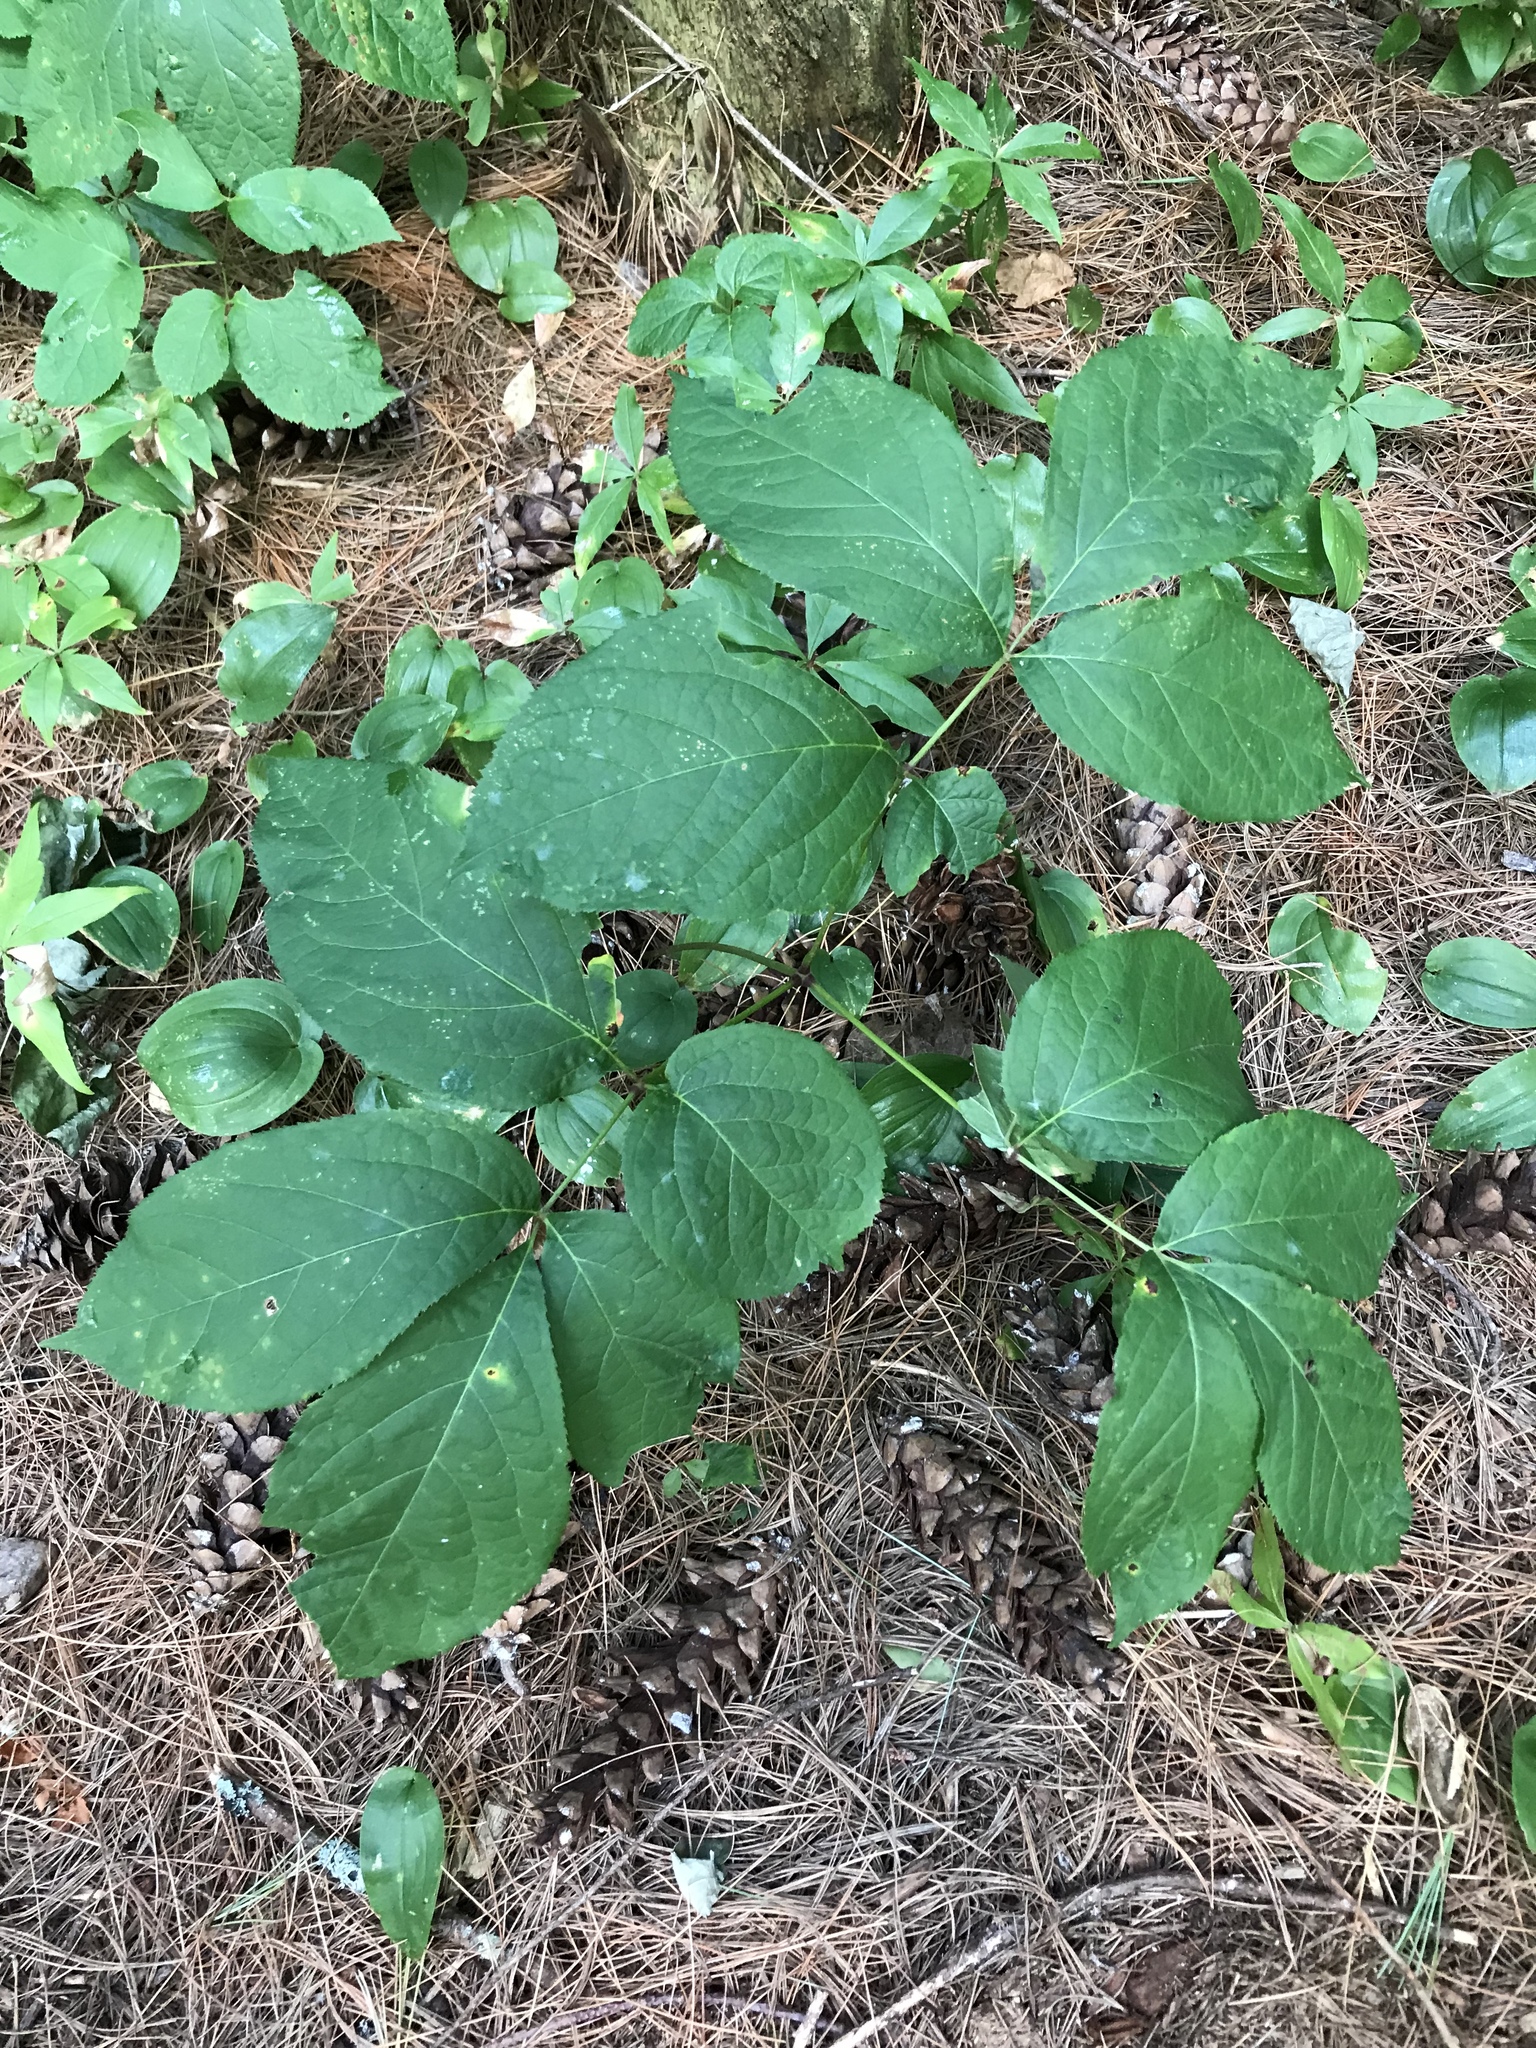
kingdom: Plantae
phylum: Tracheophyta
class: Magnoliopsida
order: Apiales
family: Araliaceae
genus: Aralia
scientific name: Aralia nudicaulis
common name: Wild sarsaparilla
